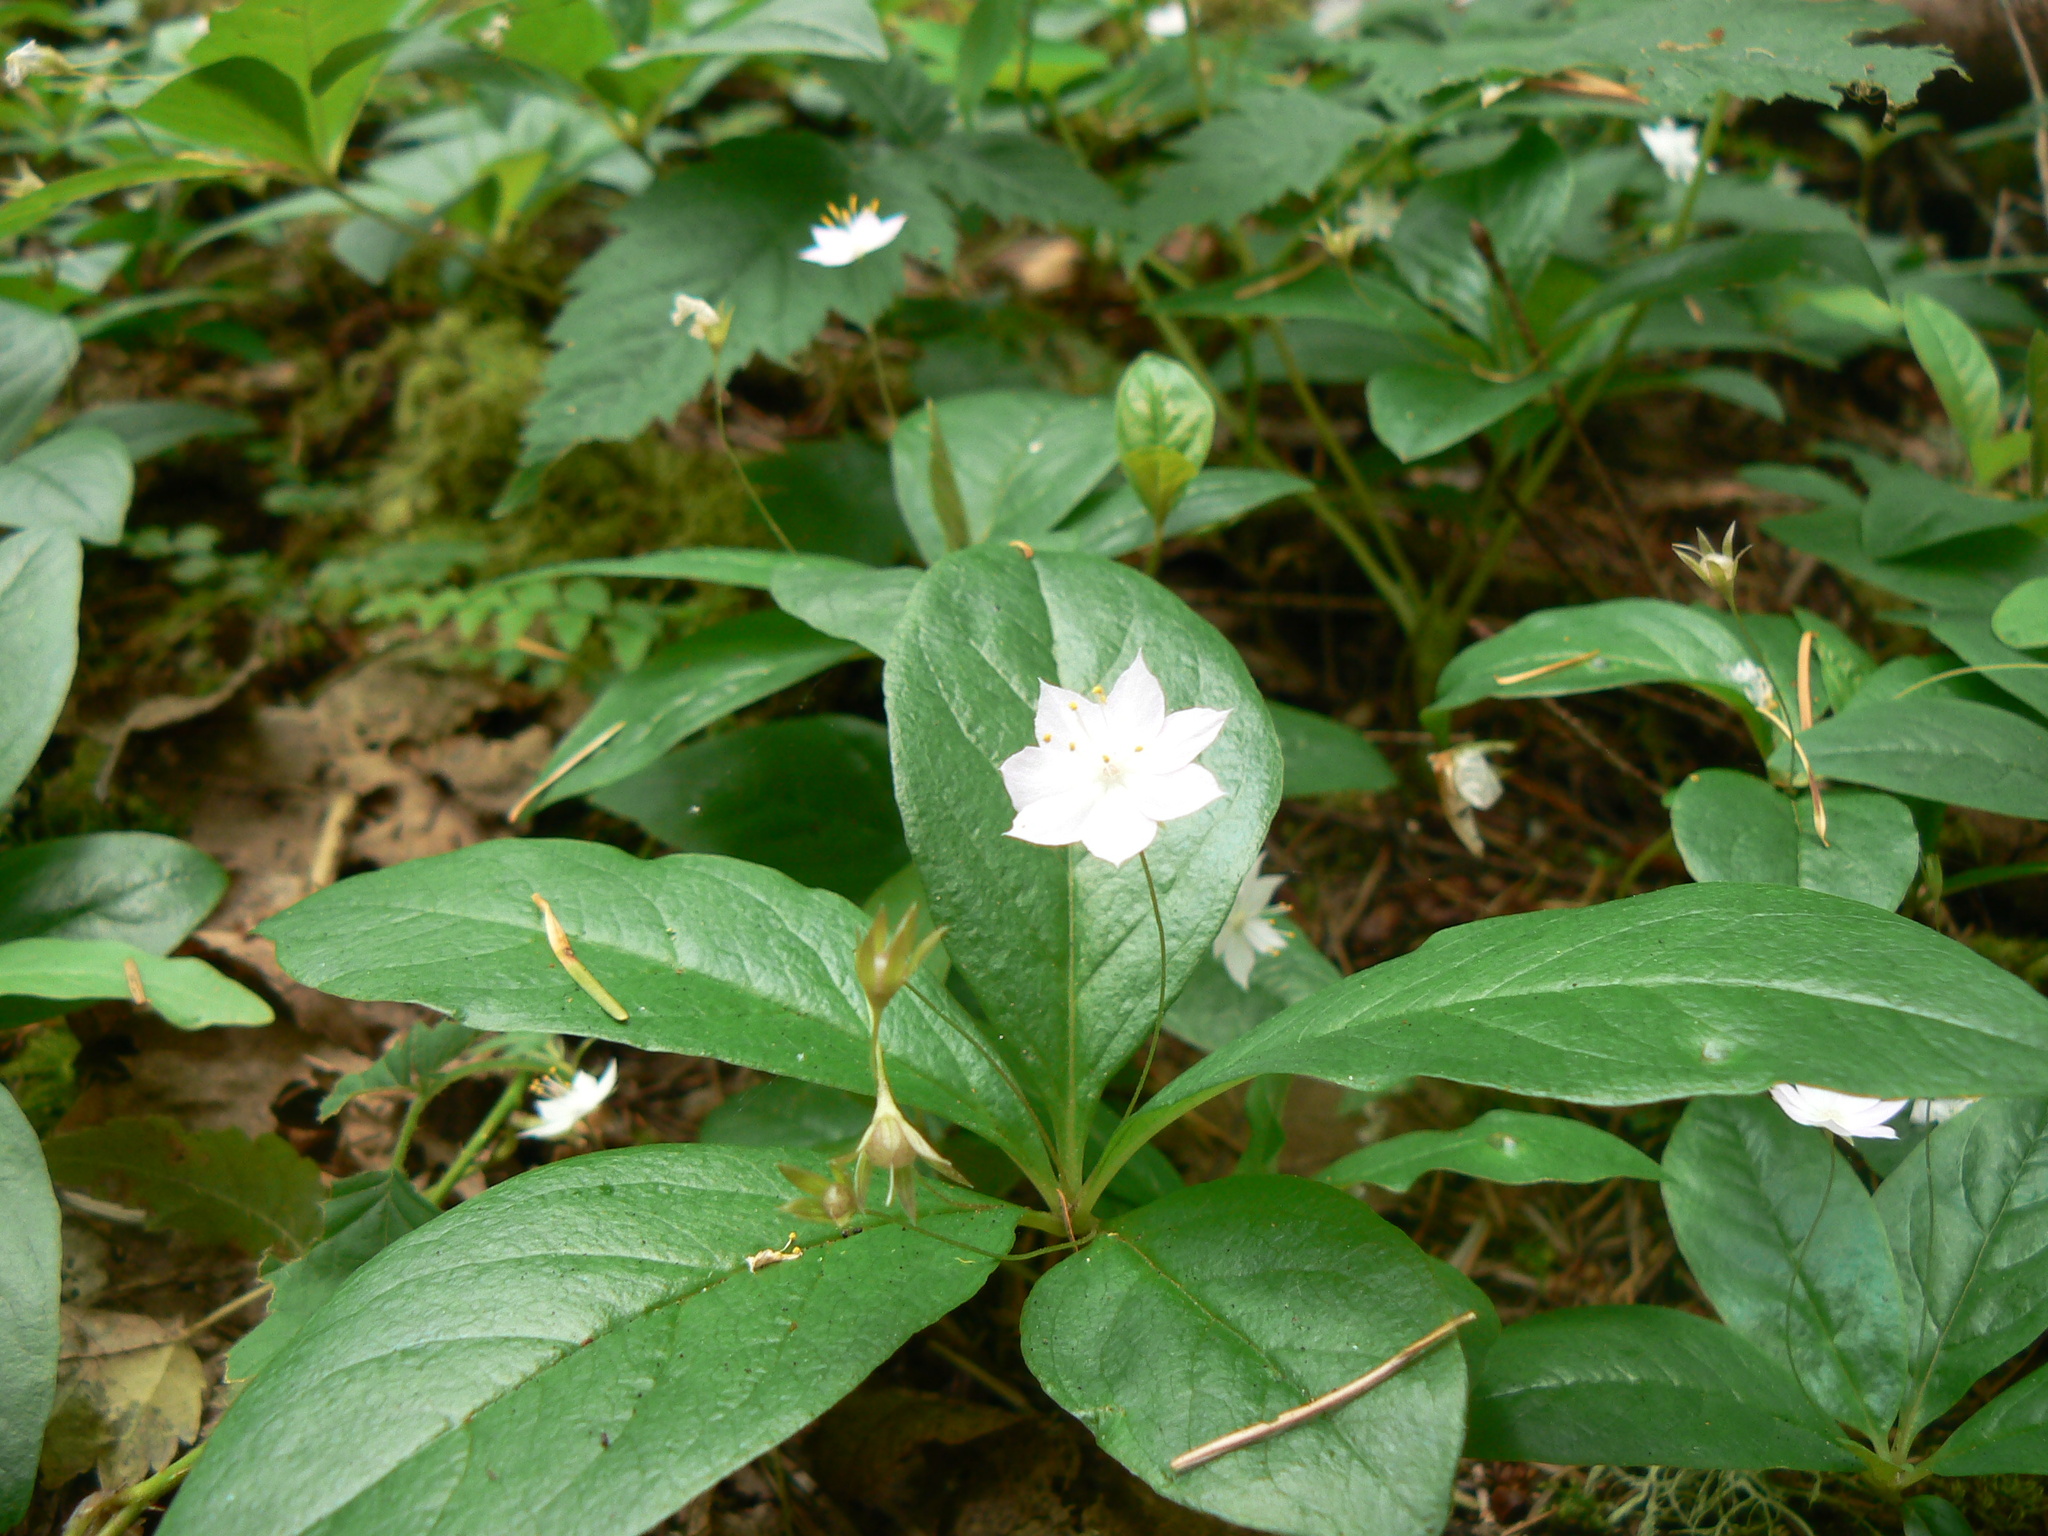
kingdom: Plantae
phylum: Tracheophyta
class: Magnoliopsida
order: Ericales
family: Primulaceae
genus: Lysimachia
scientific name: Lysimachia latifolia
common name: Pacific starflower
